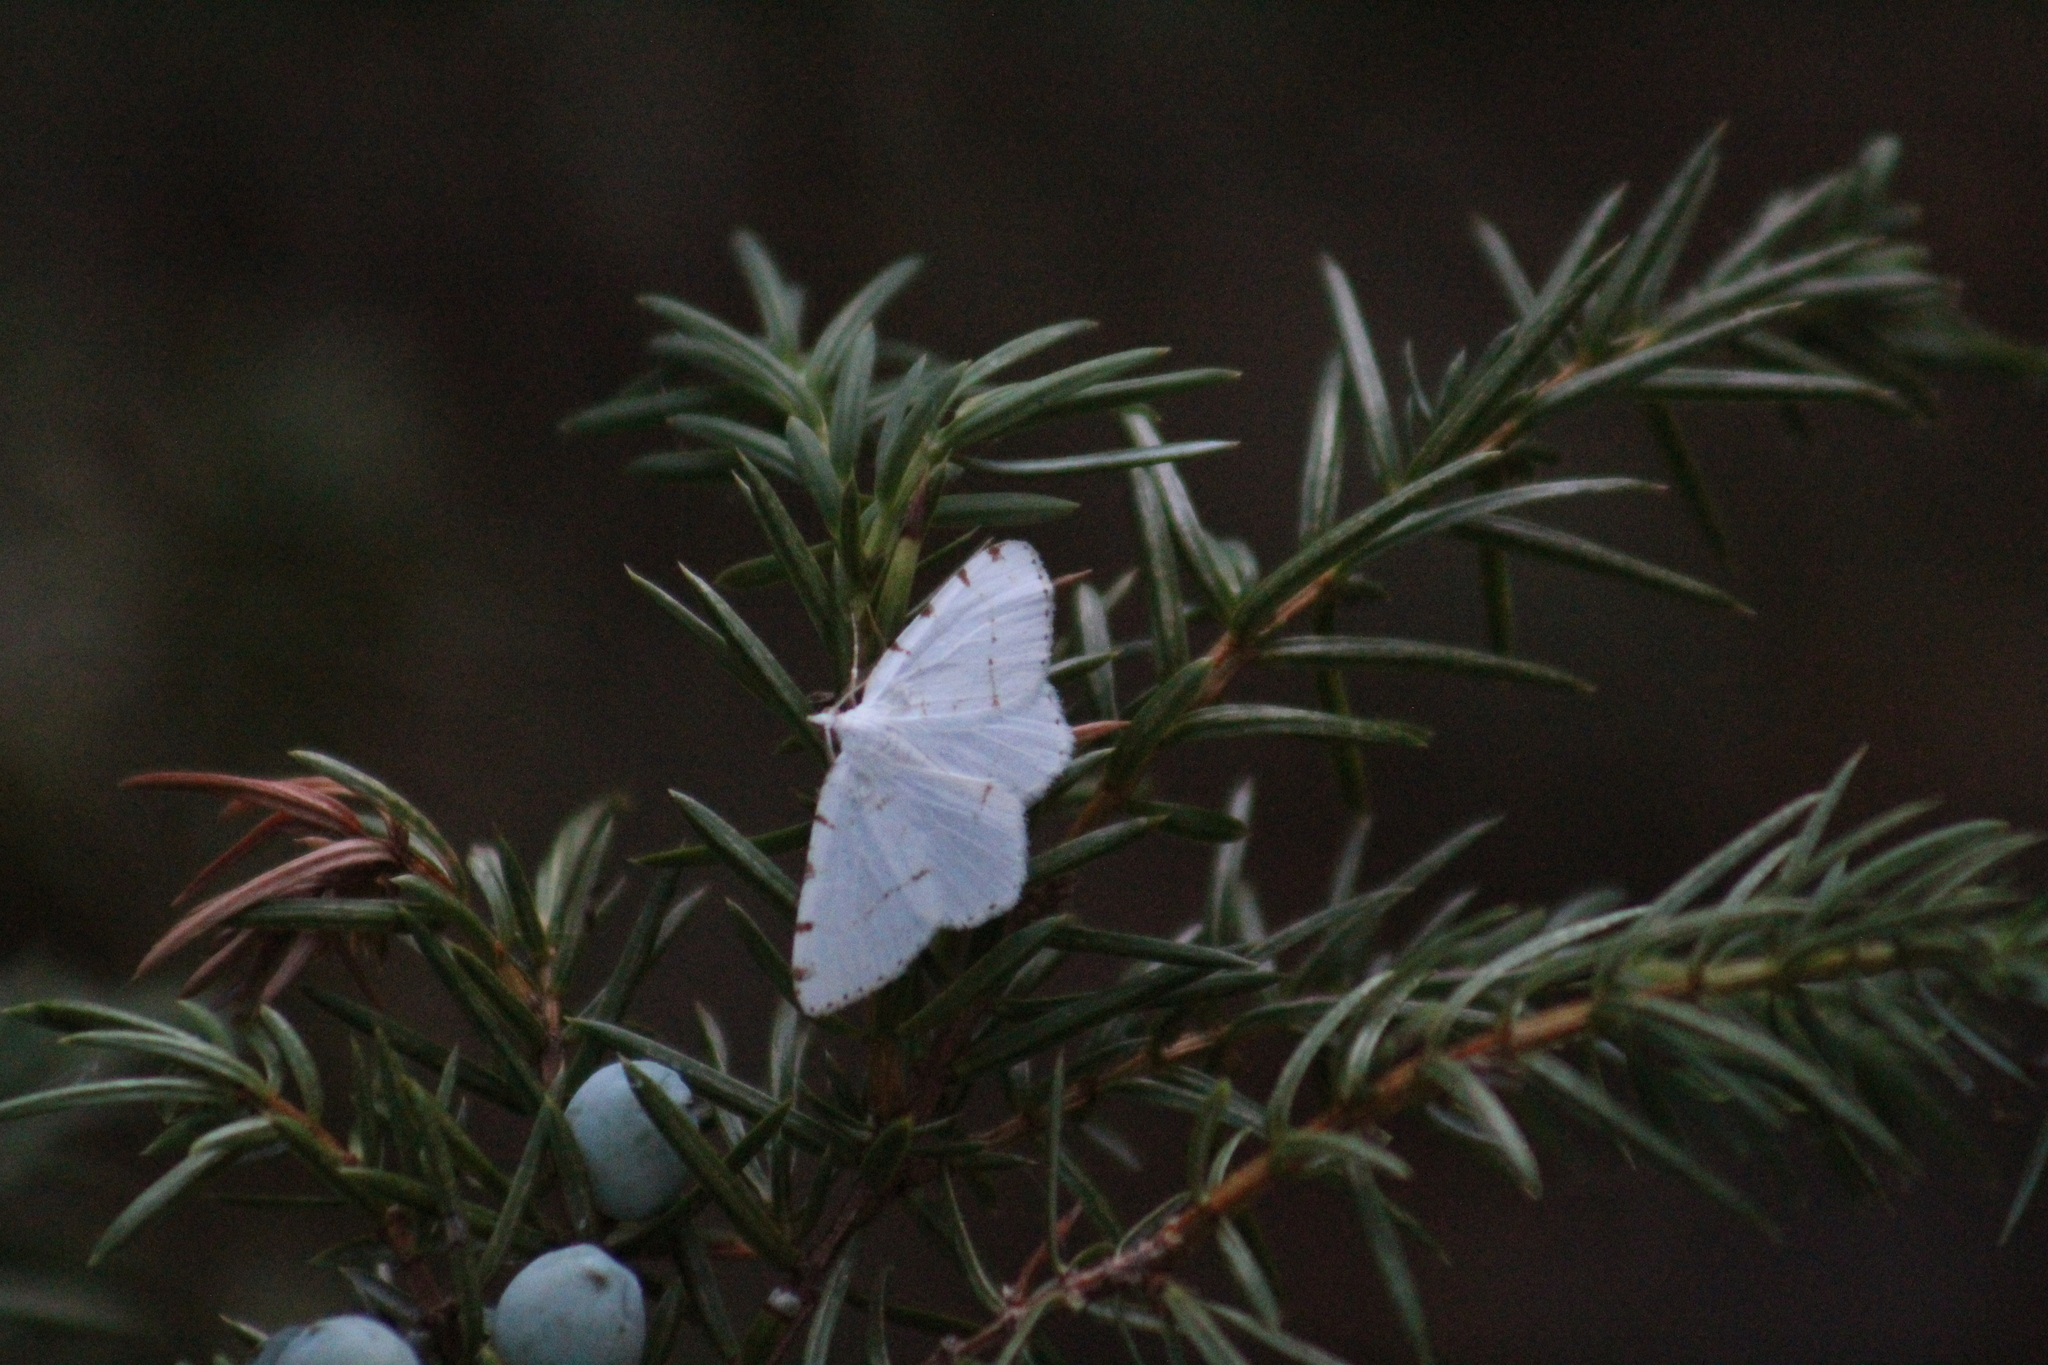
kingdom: Animalia
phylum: Arthropoda
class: Insecta
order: Lepidoptera
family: Geometridae
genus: Macaria
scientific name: Macaria pustularia
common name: Lesser maple spanworm moth
